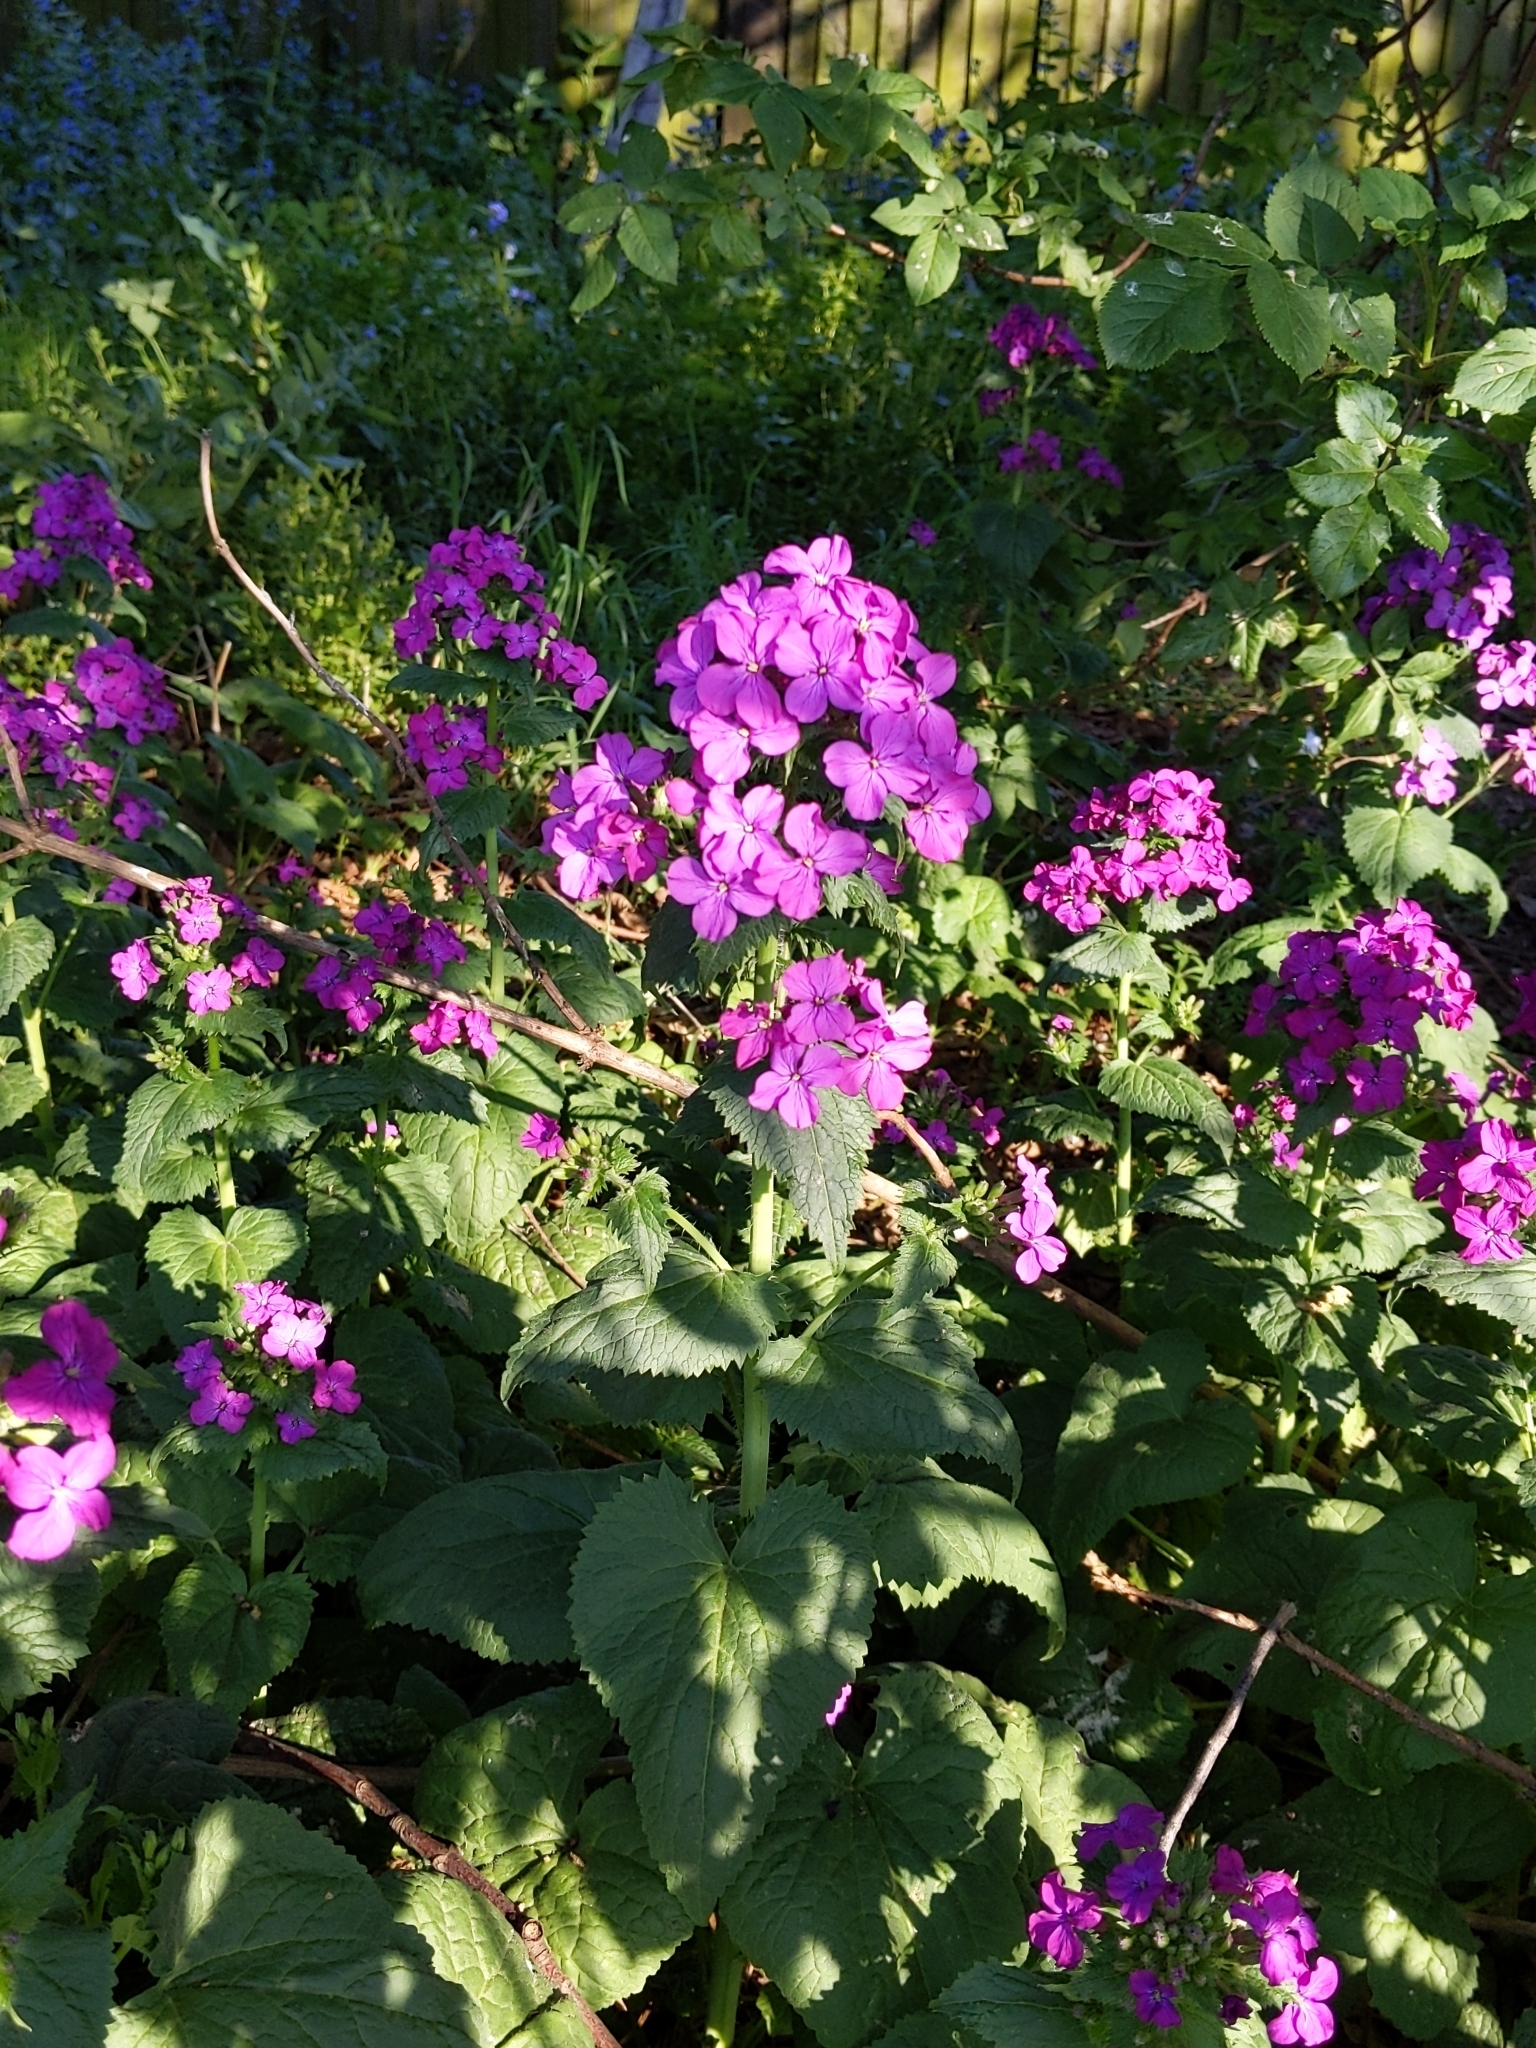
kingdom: Plantae
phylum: Tracheophyta
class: Magnoliopsida
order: Brassicales
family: Brassicaceae
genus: Lunaria
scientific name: Lunaria annua
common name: Honesty
